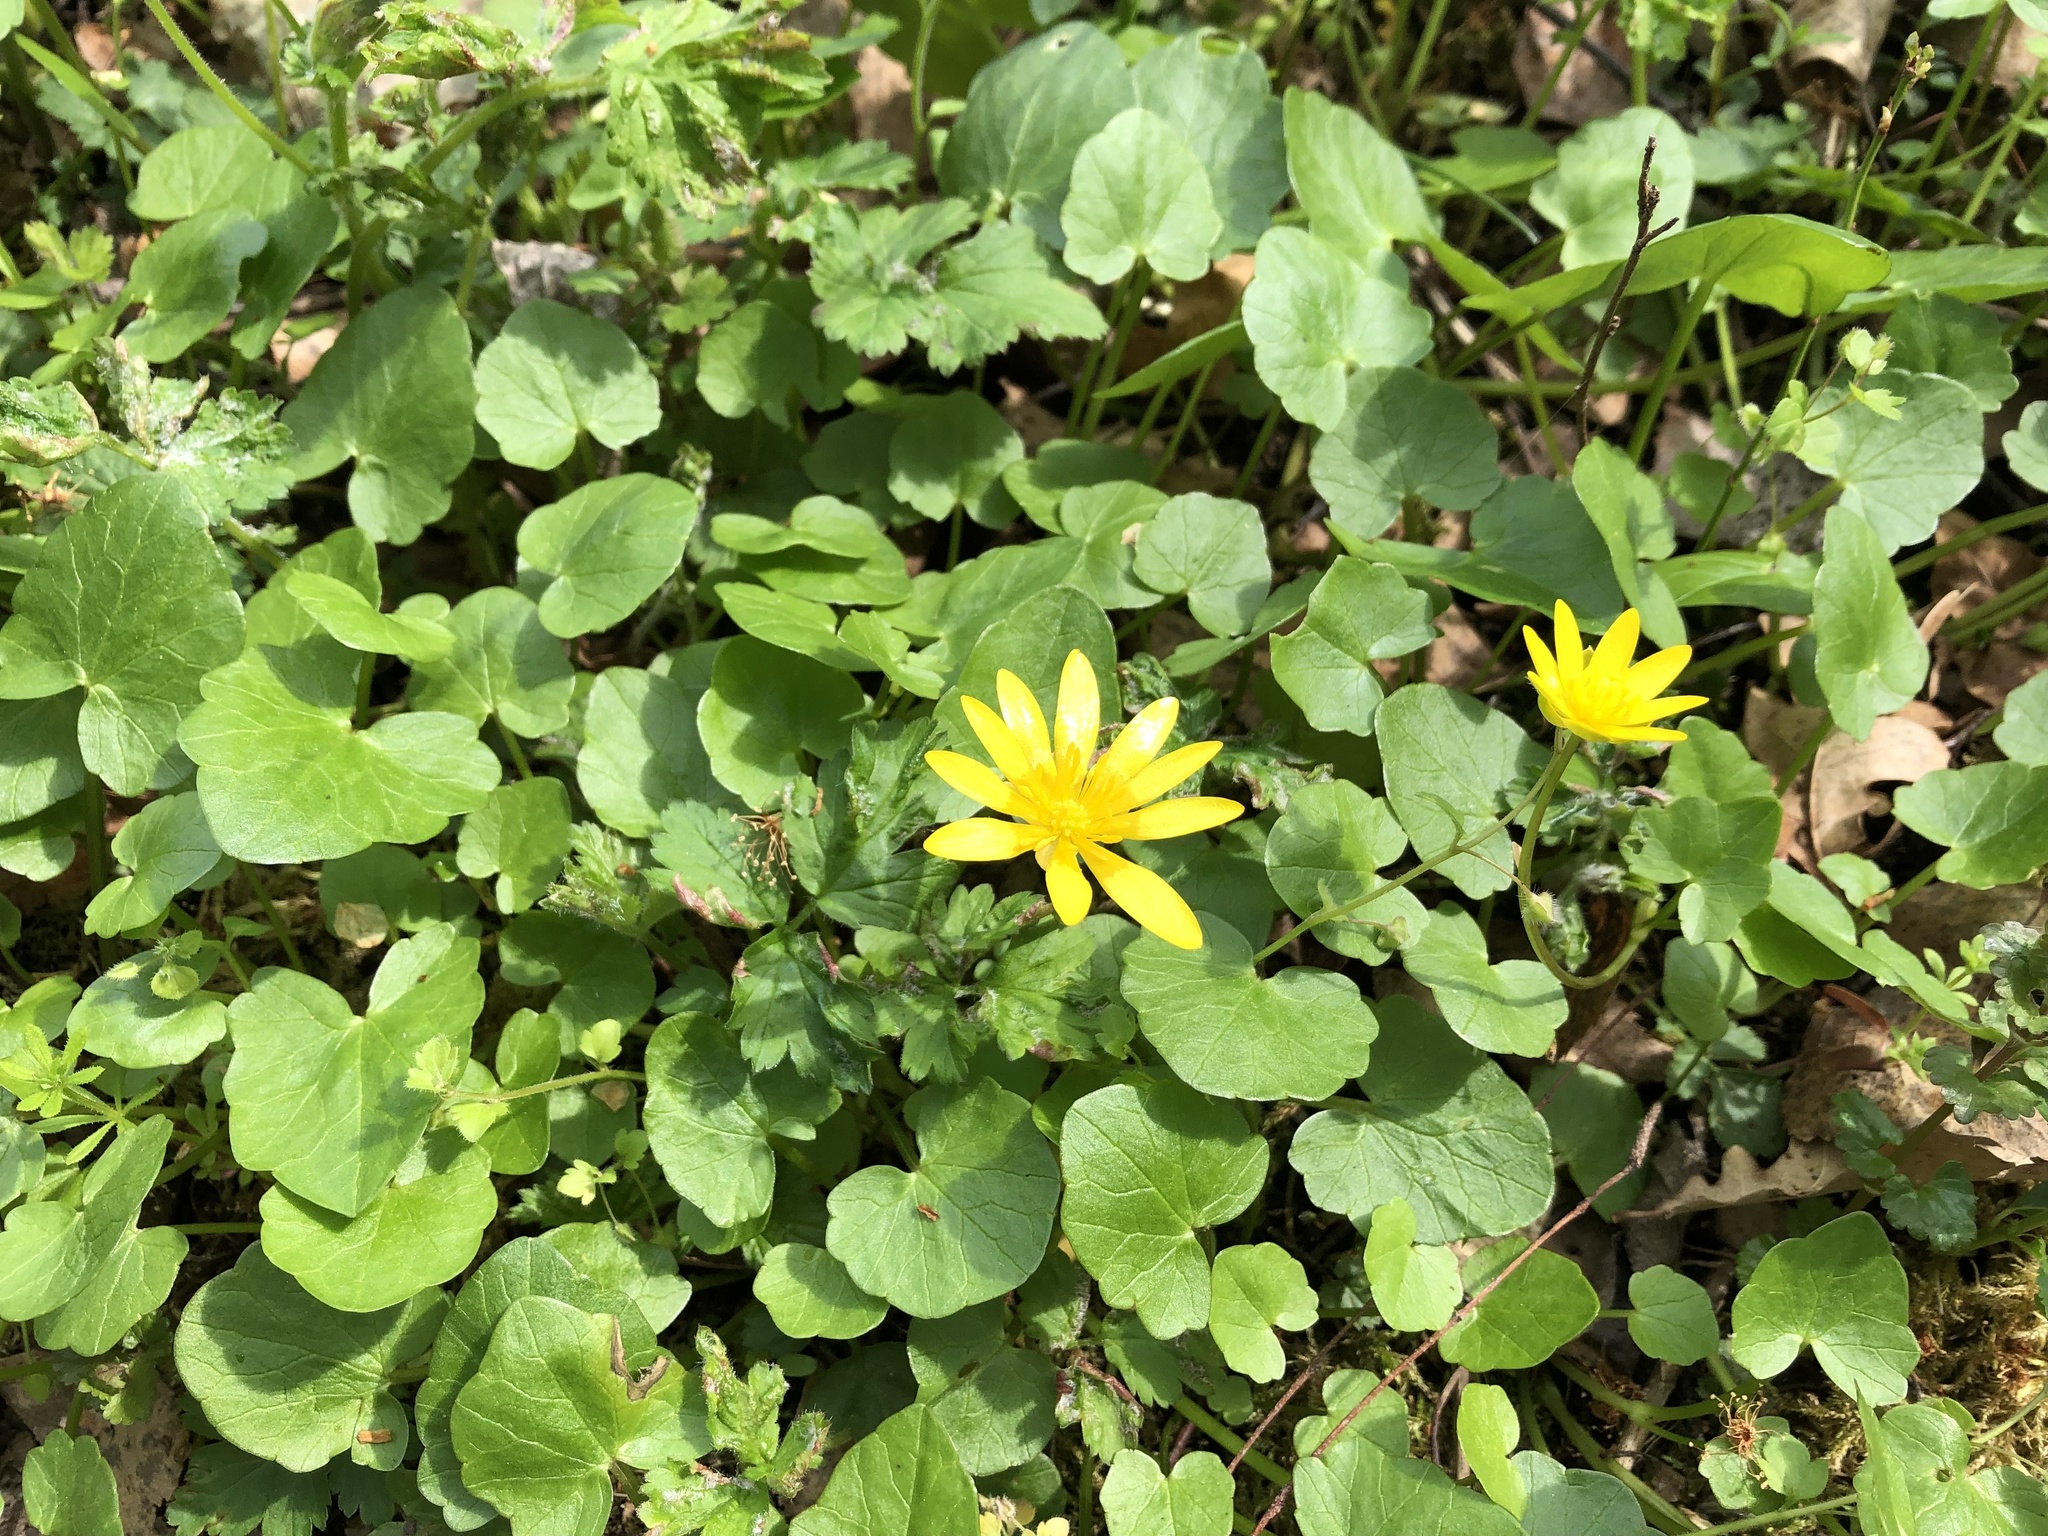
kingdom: Plantae
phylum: Tracheophyta
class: Magnoliopsida
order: Ranunculales
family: Ranunculaceae
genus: Ficaria
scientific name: Ficaria verna
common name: Lesser celandine
